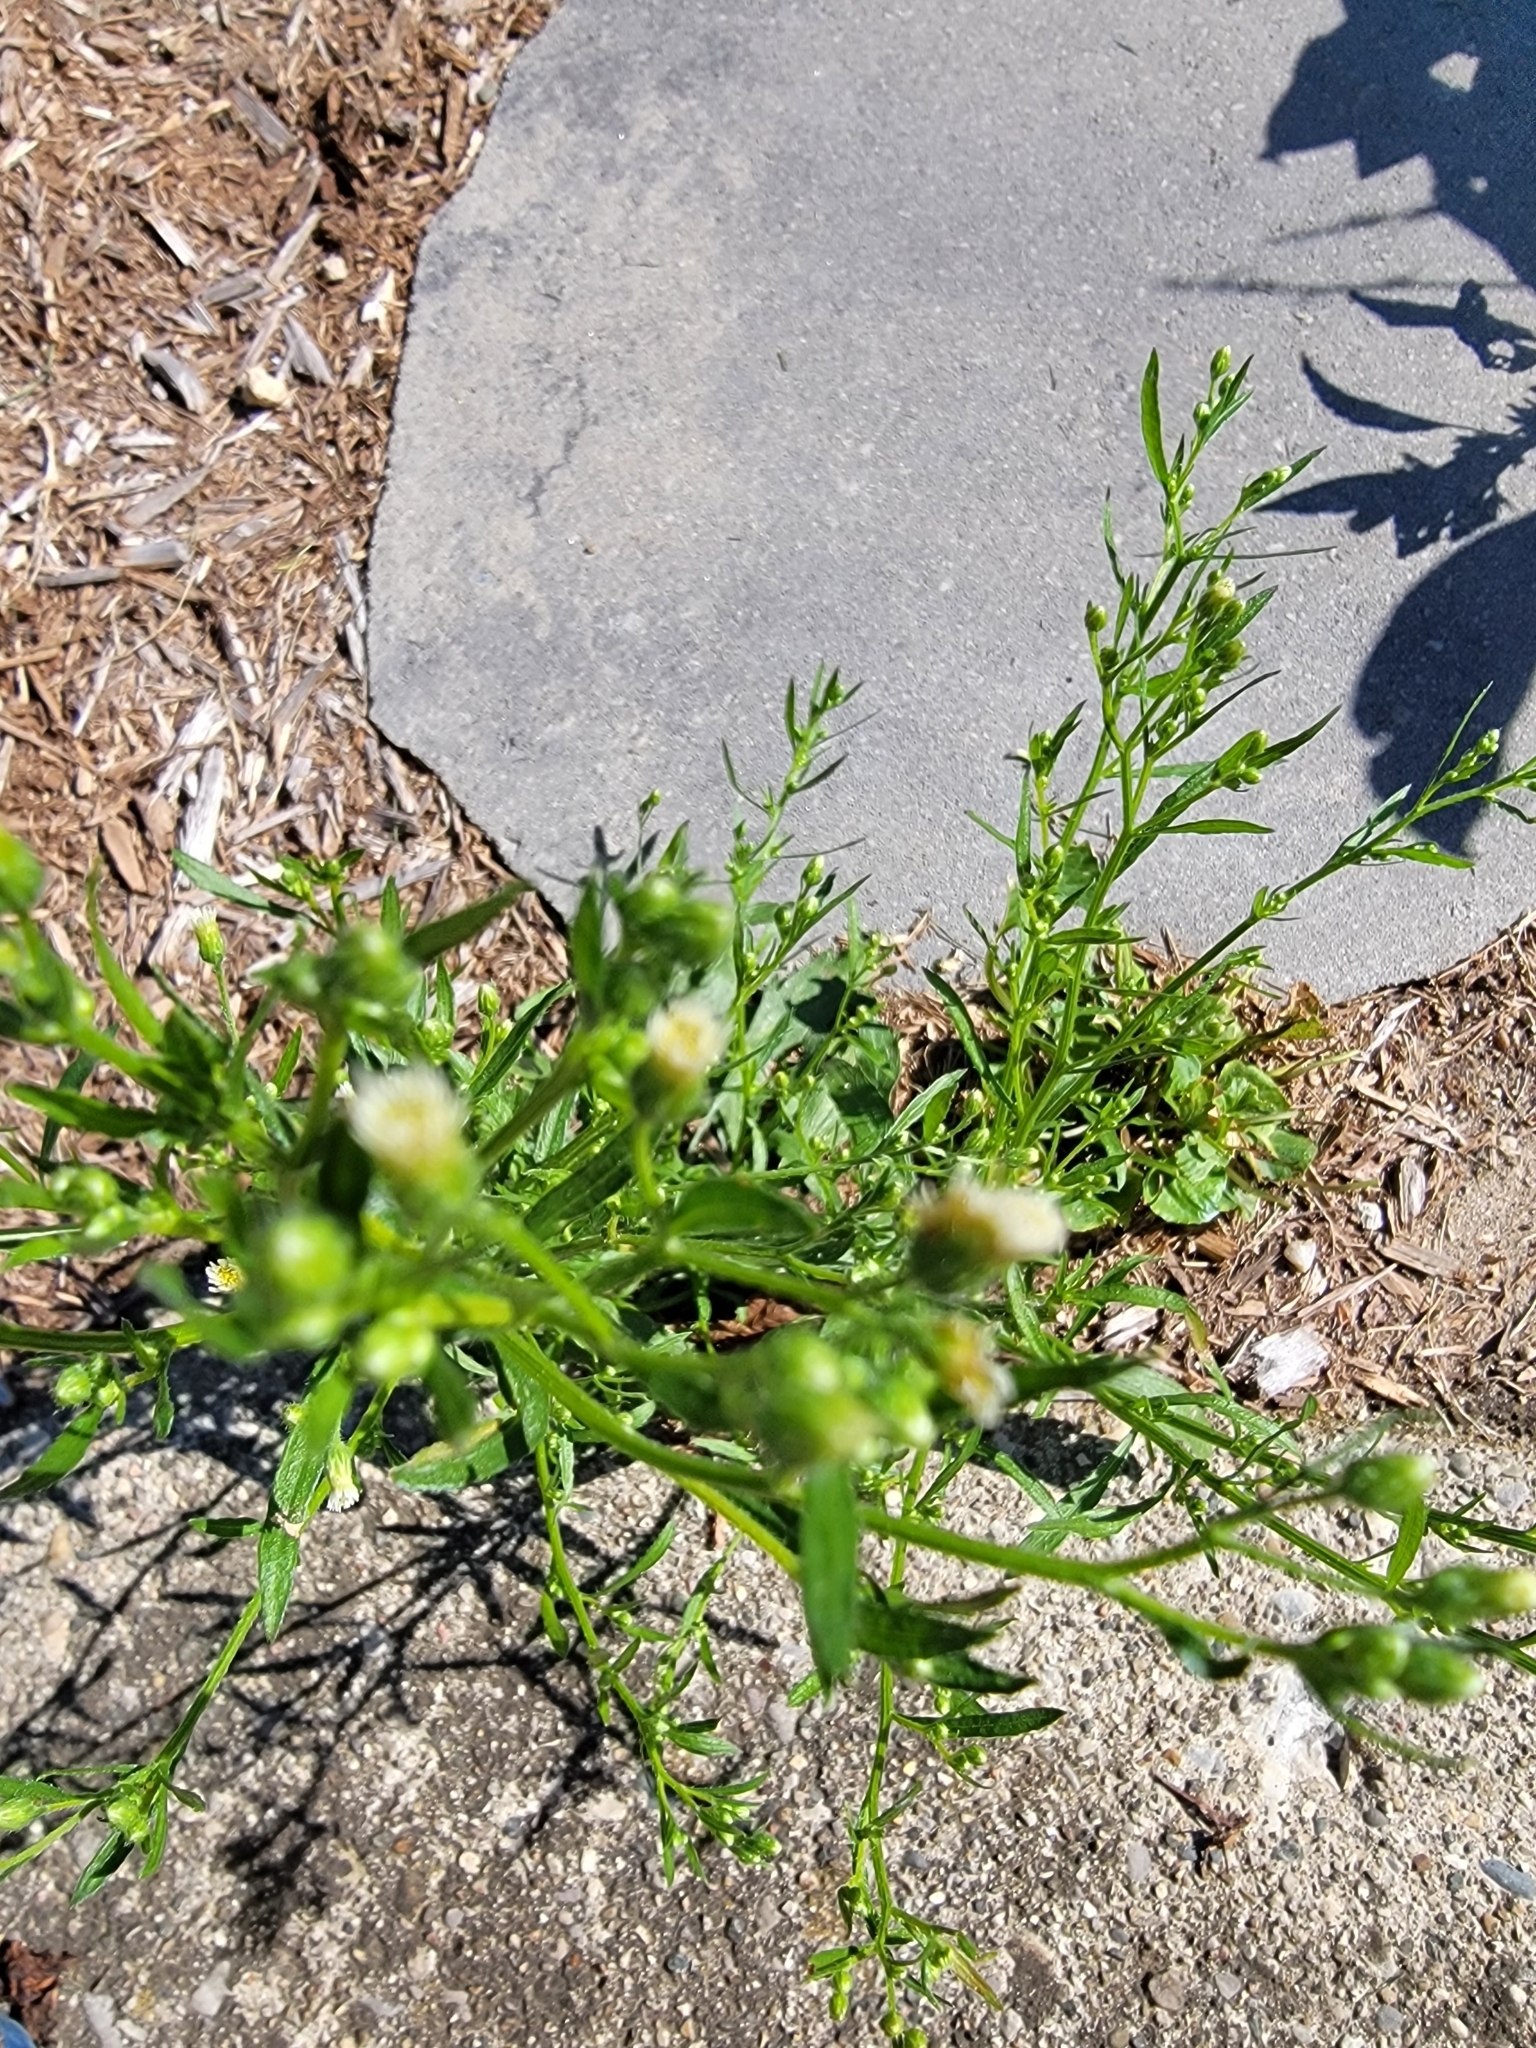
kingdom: Plantae
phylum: Tracheophyta
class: Magnoliopsida
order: Asterales
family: Asteraceae
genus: Erigeron
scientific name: Erigeron canadensis
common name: Canadian fleabane
